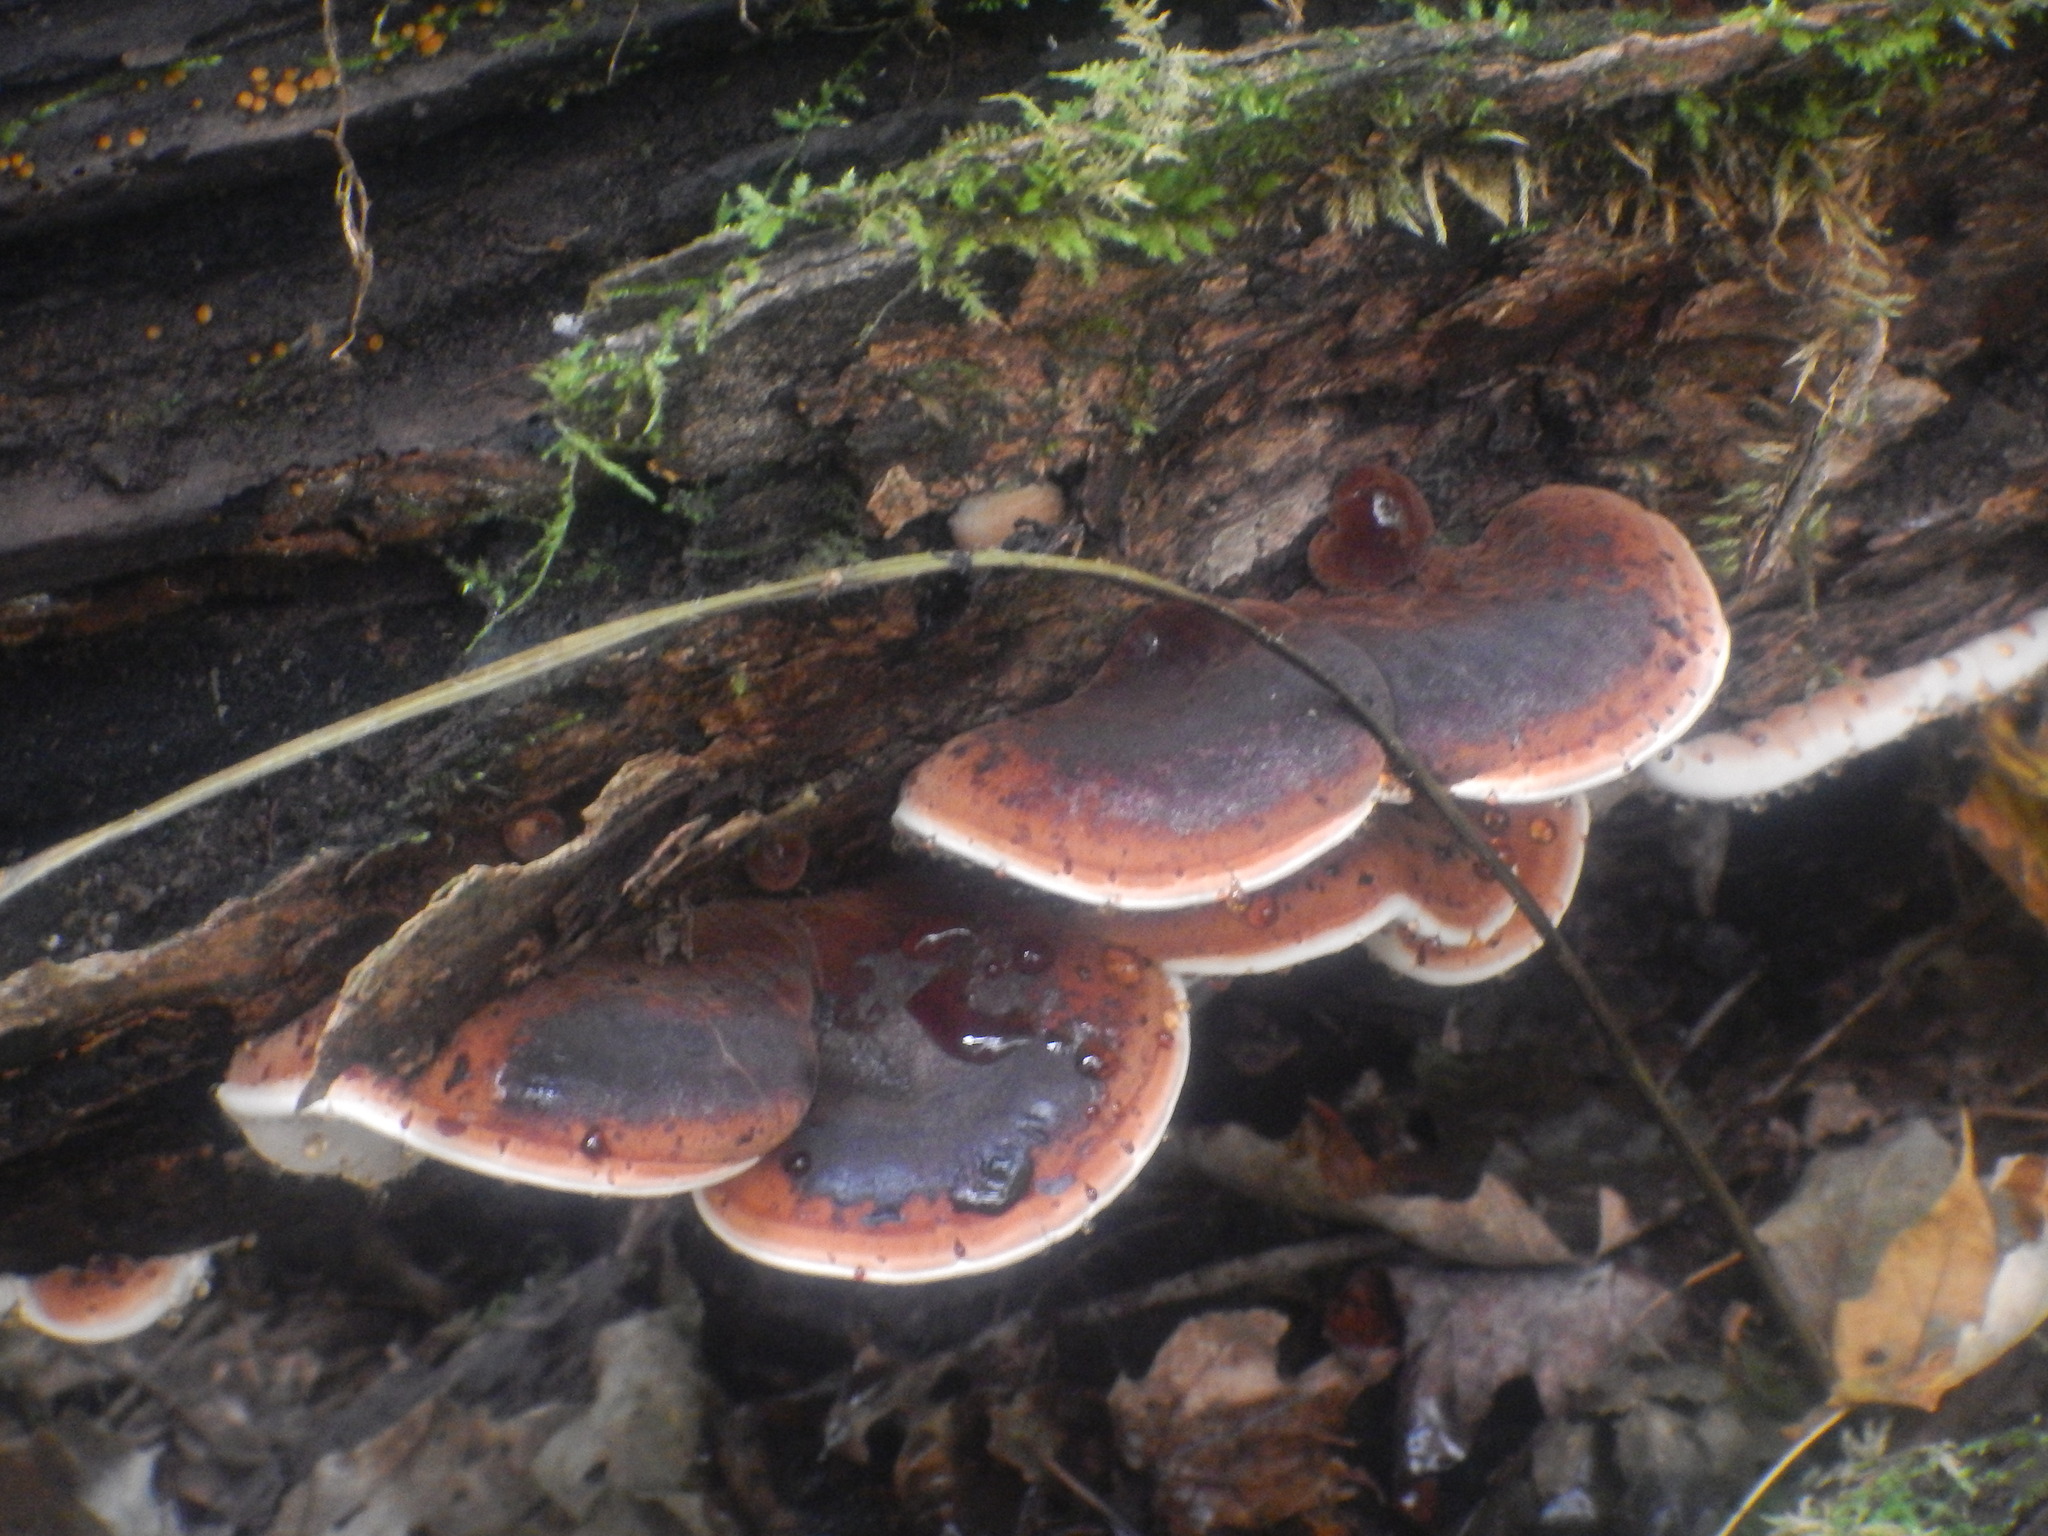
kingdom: Fungi
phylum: Basidiomycota
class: Agaricomycetes
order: Polyporales
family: Ischnodermataceae
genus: Ischnoderma
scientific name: Ischnoderma resinosum
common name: Resinous polypore
